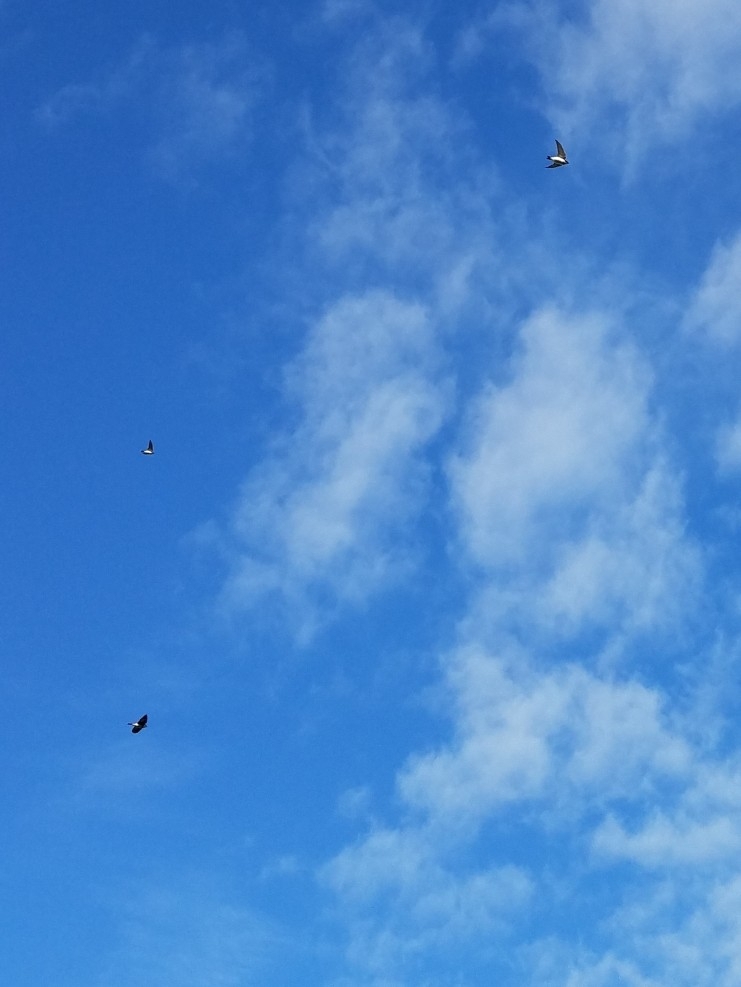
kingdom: Animalia
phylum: Chordata
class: Aves
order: Passeriformes
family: Hirundinidae
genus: Tachycineta
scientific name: Tachycineta bicolor
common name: Tree swallow
